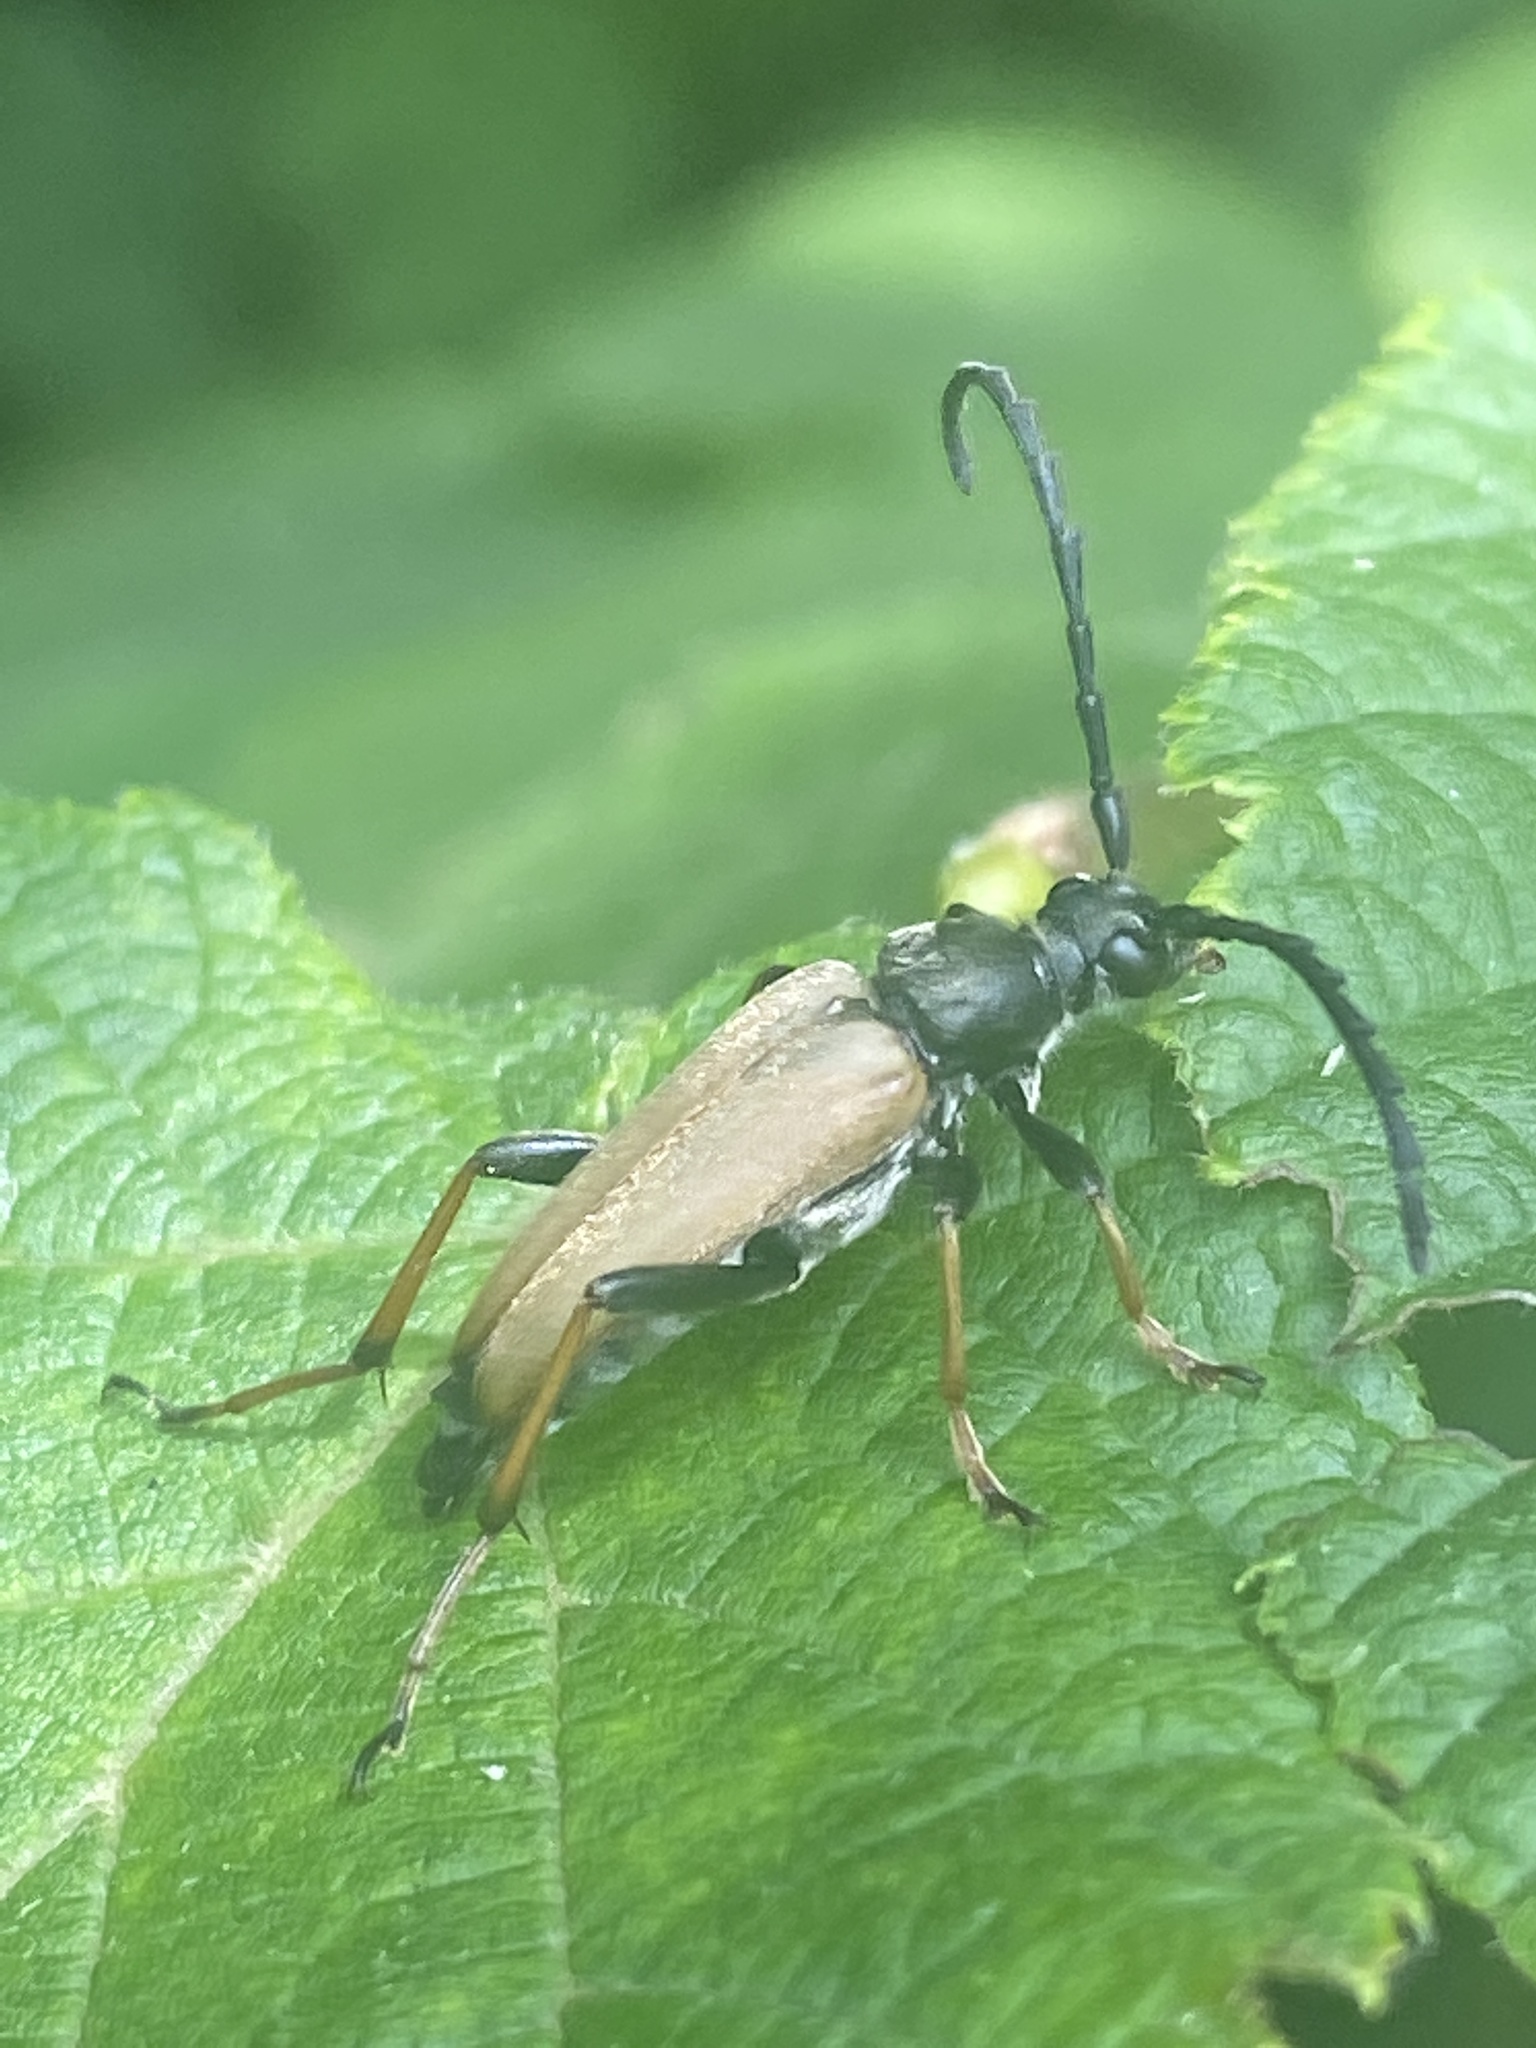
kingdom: Animalia
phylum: Arthropoda
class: Insecta
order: Coleoptera
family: Cerambycidae
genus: Stictoleptura
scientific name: Stictoleptura rubra
